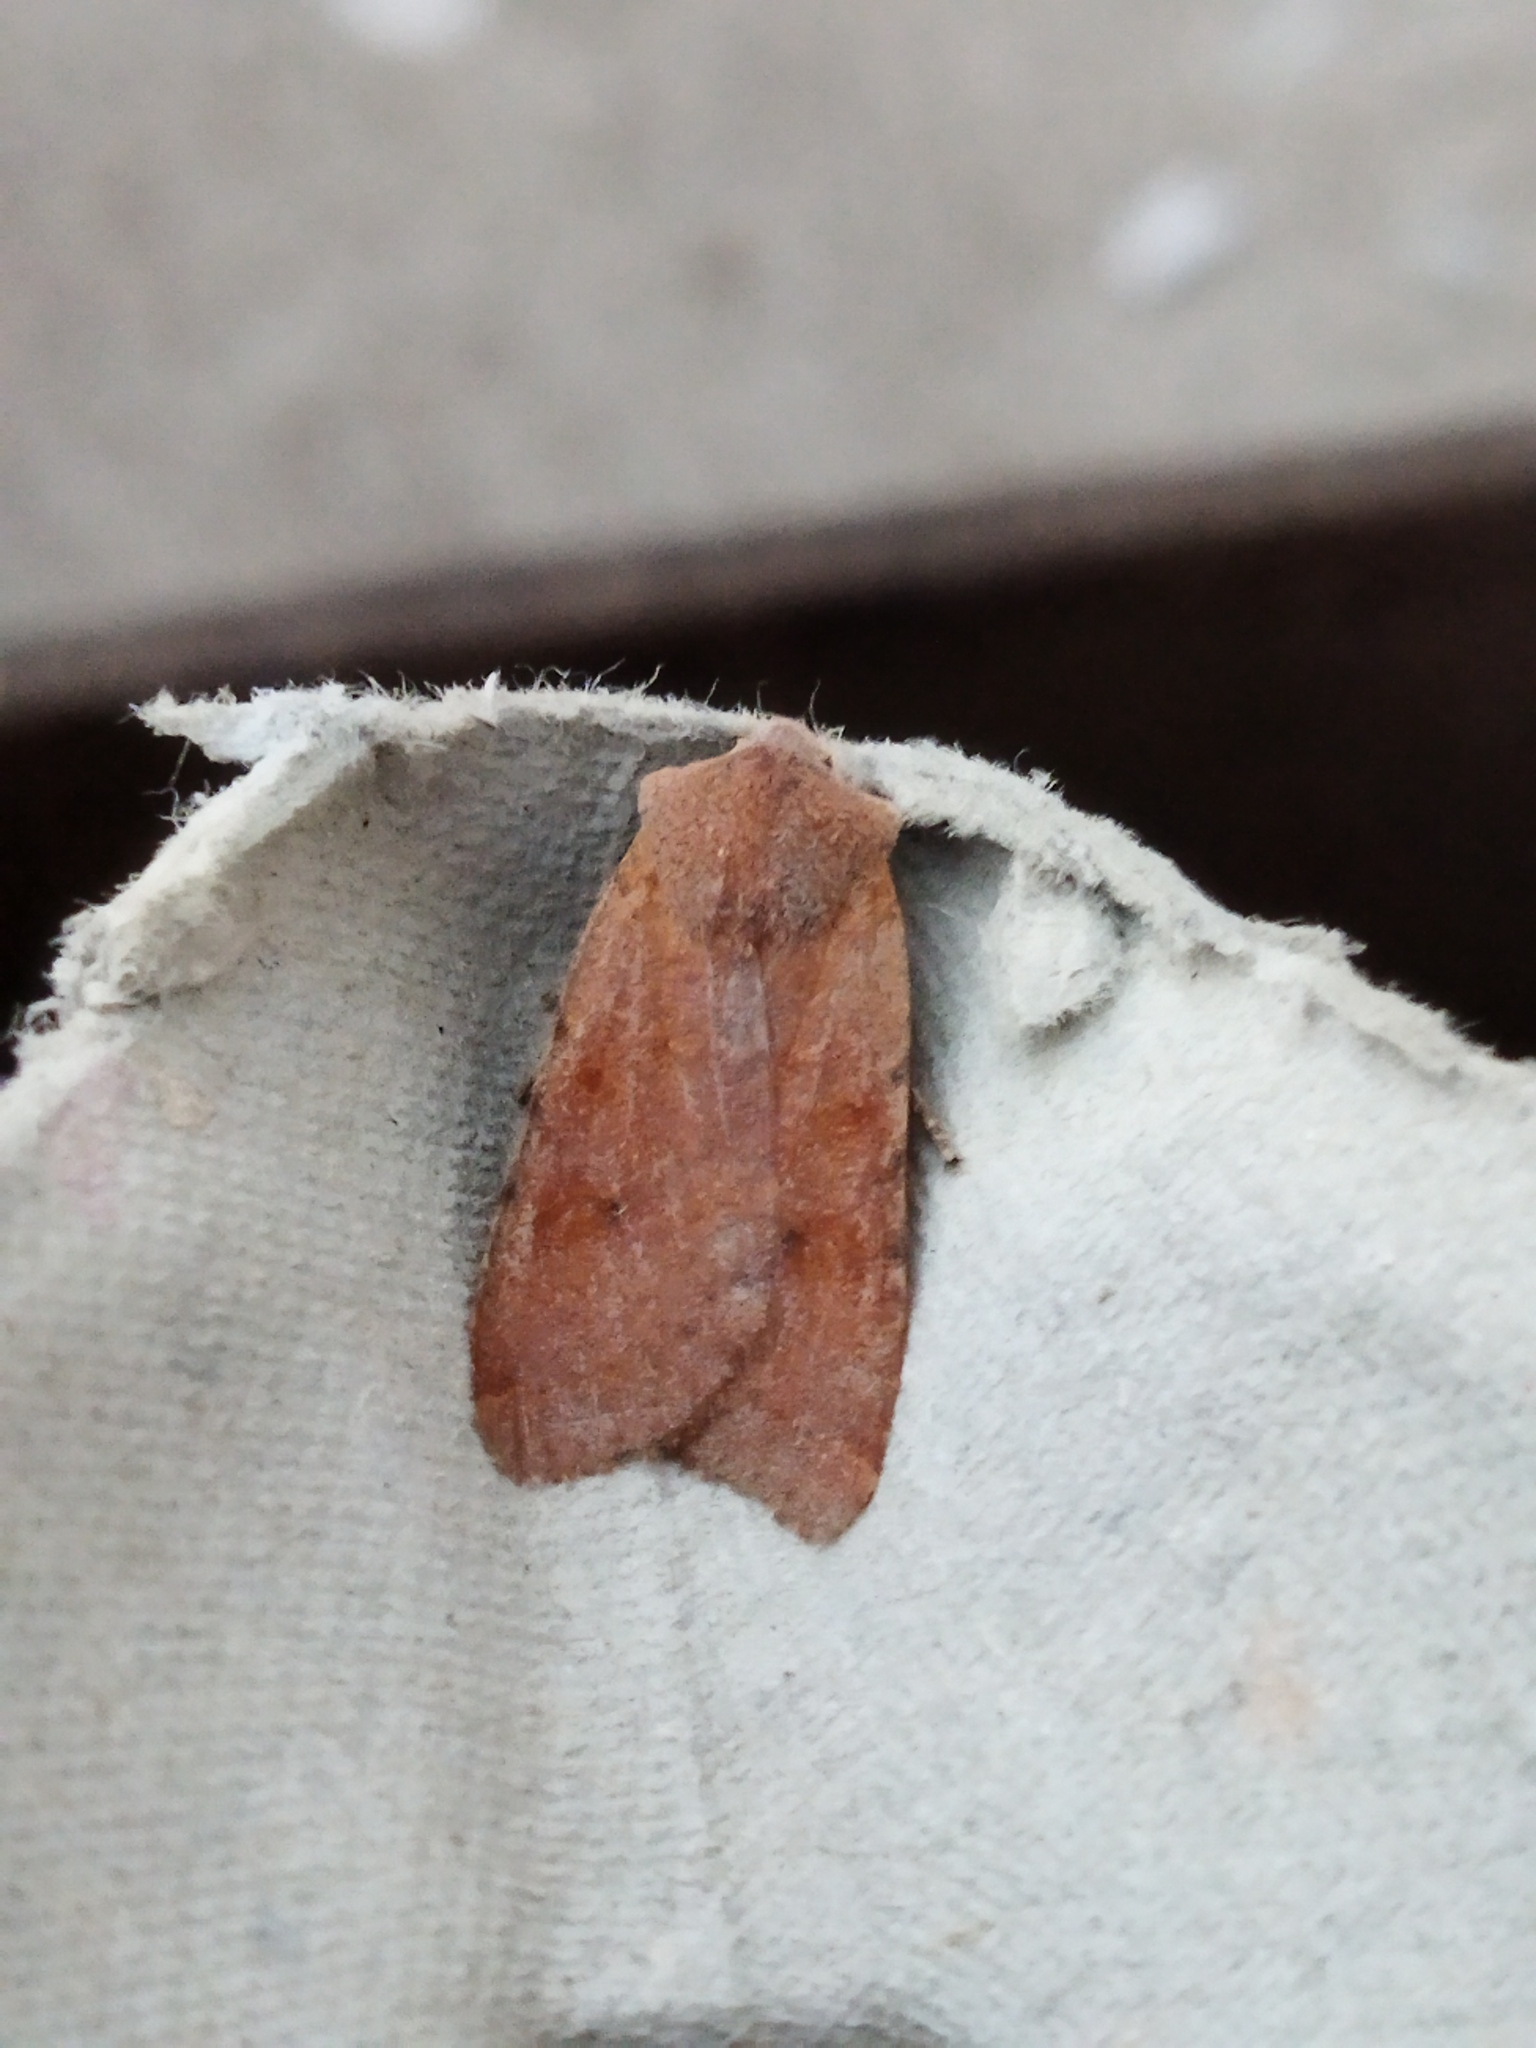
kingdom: Animalia
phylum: Arthropoda
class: Insecta
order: Lepidoptera
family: Noctuidae
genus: Agrochola
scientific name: Agrochola lychnidis
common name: Beaded chestnut
